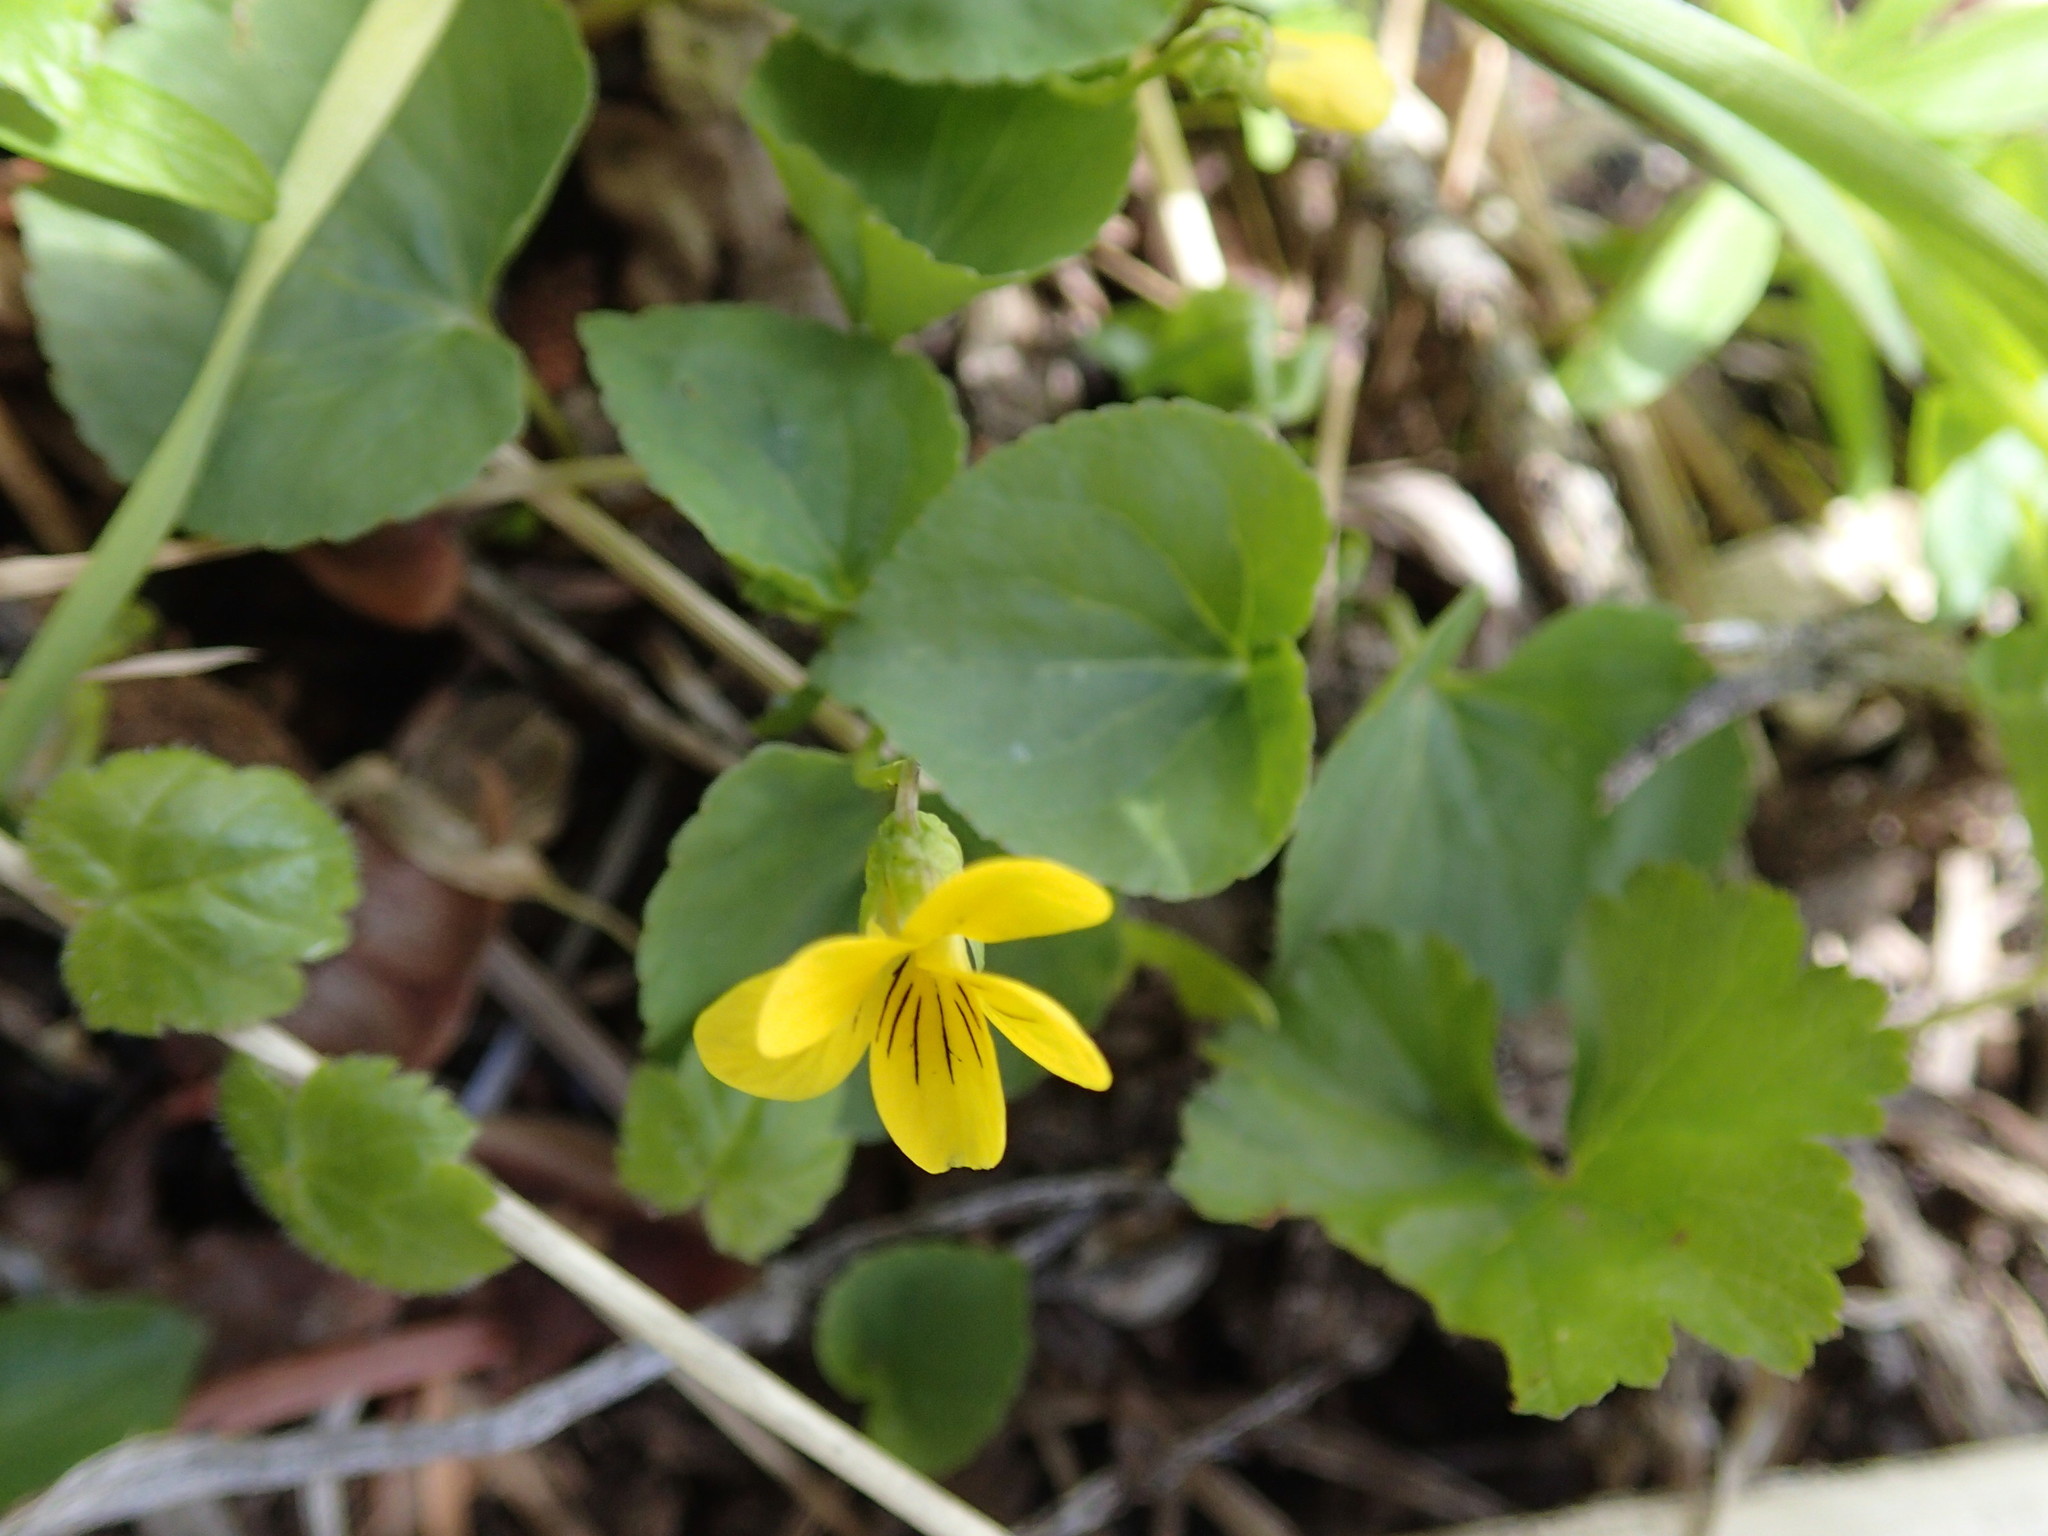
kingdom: Plantae
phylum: Tracheophyta
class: Magnoliopsida
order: Malpighiales
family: Violaceae
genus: Viola
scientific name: Viola glabella
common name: Stream violet
